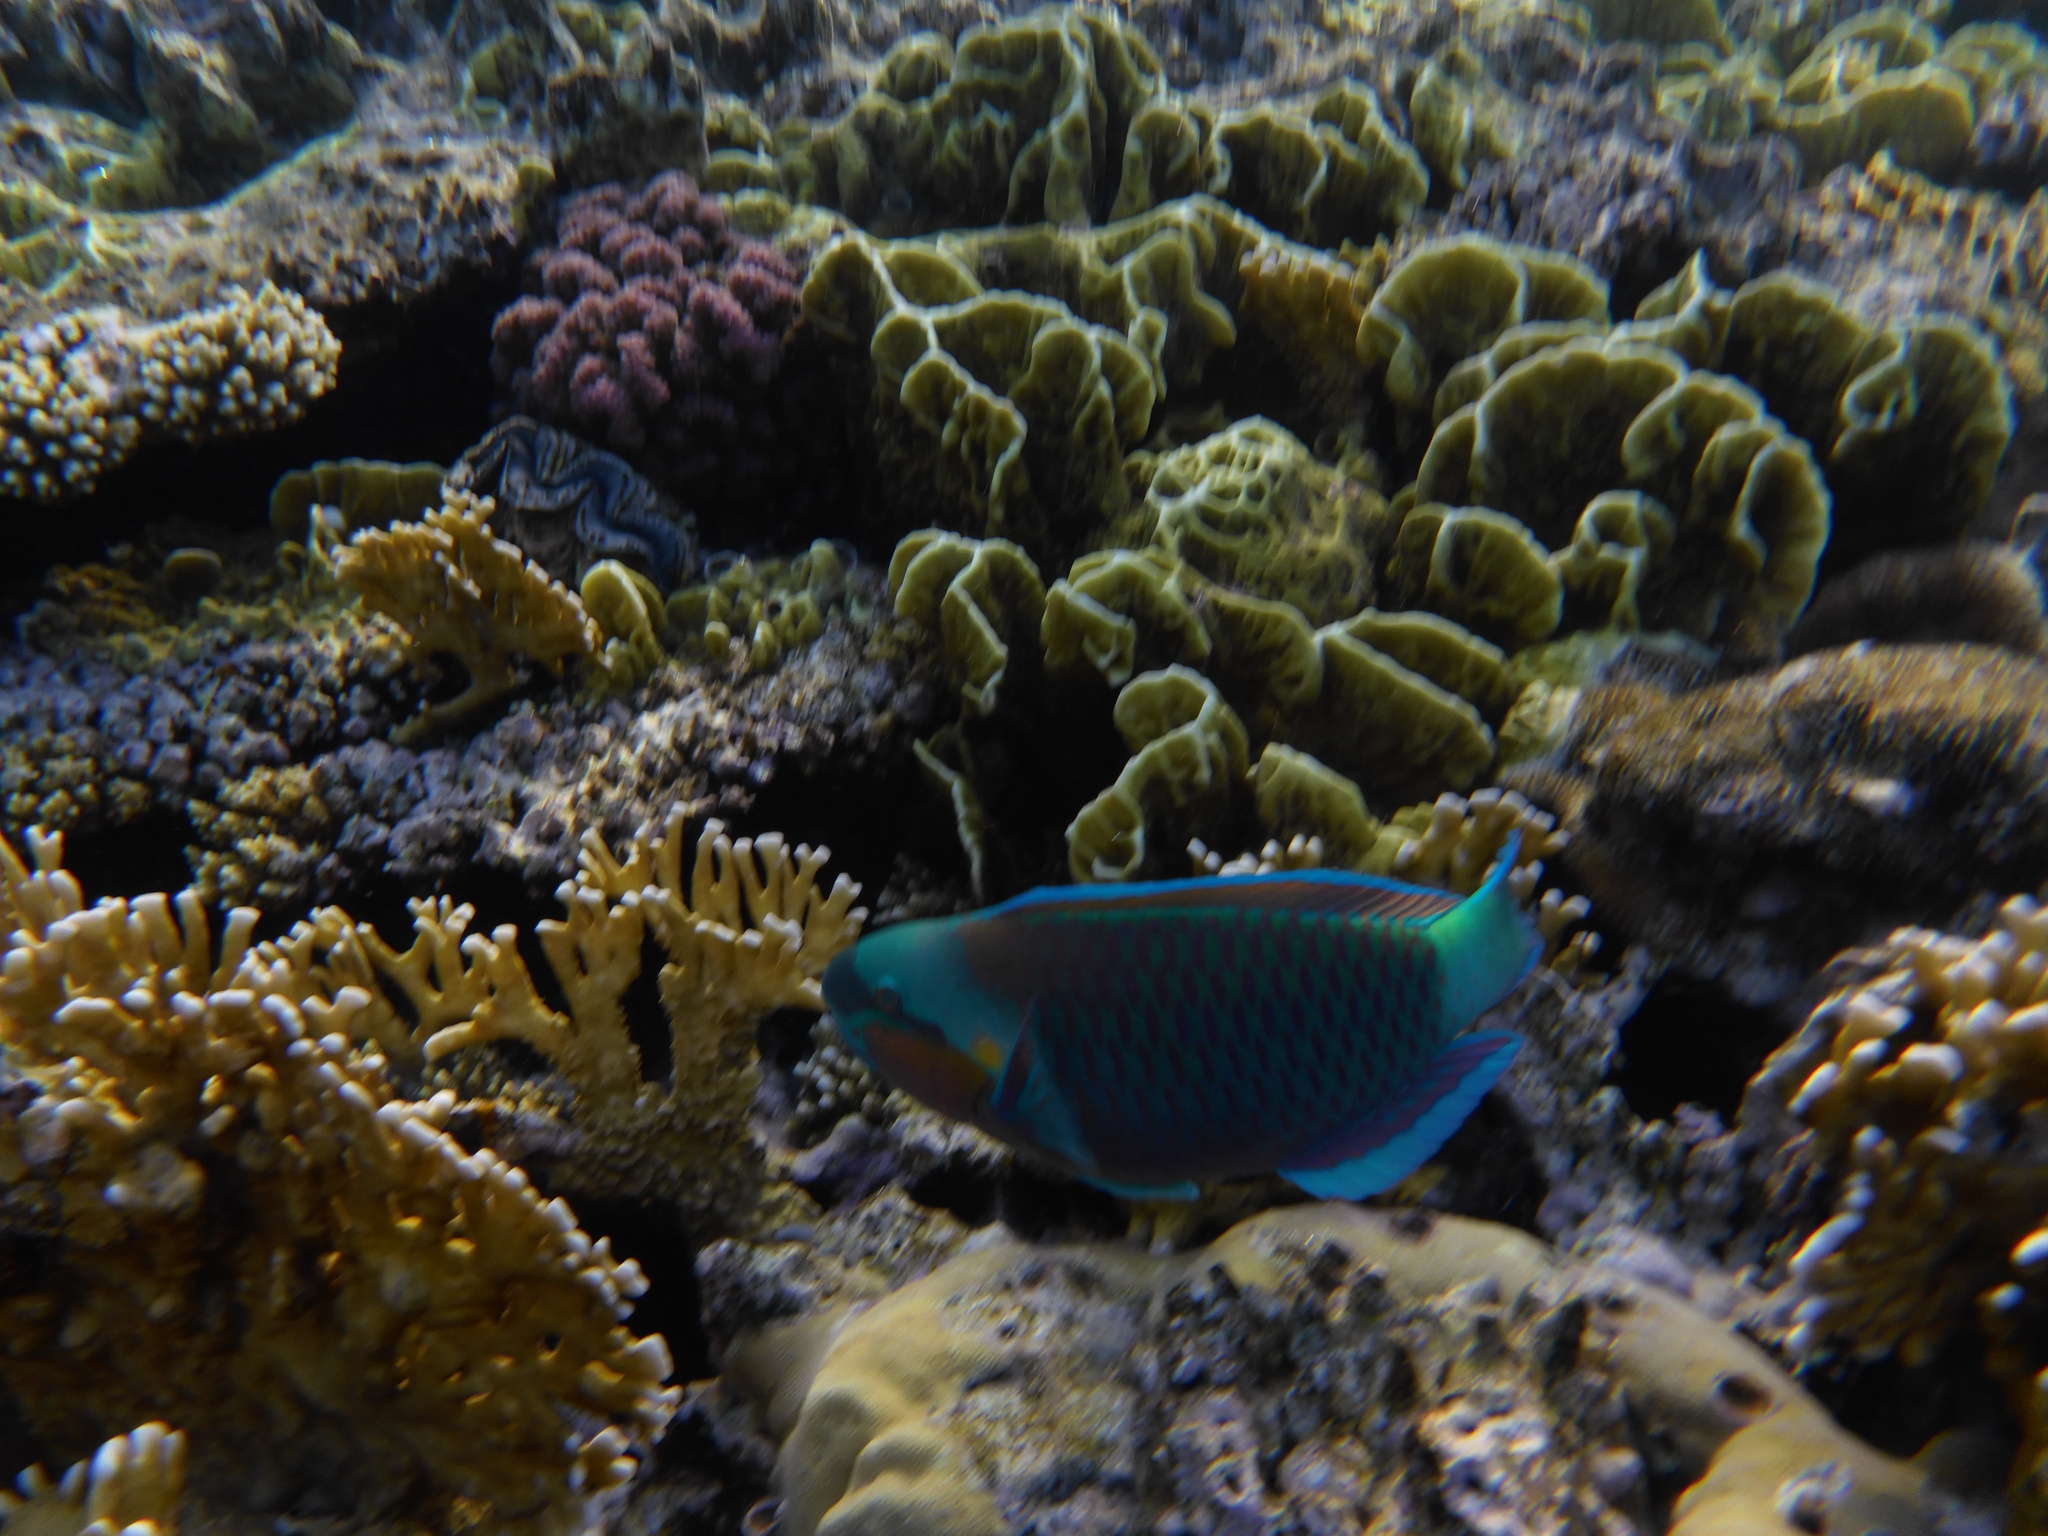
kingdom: Animalia
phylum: Chordata
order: Perciformes
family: Scaridae
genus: Chlorurus
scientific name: Chlorurus sordidus
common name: Bullethead parrotfish
